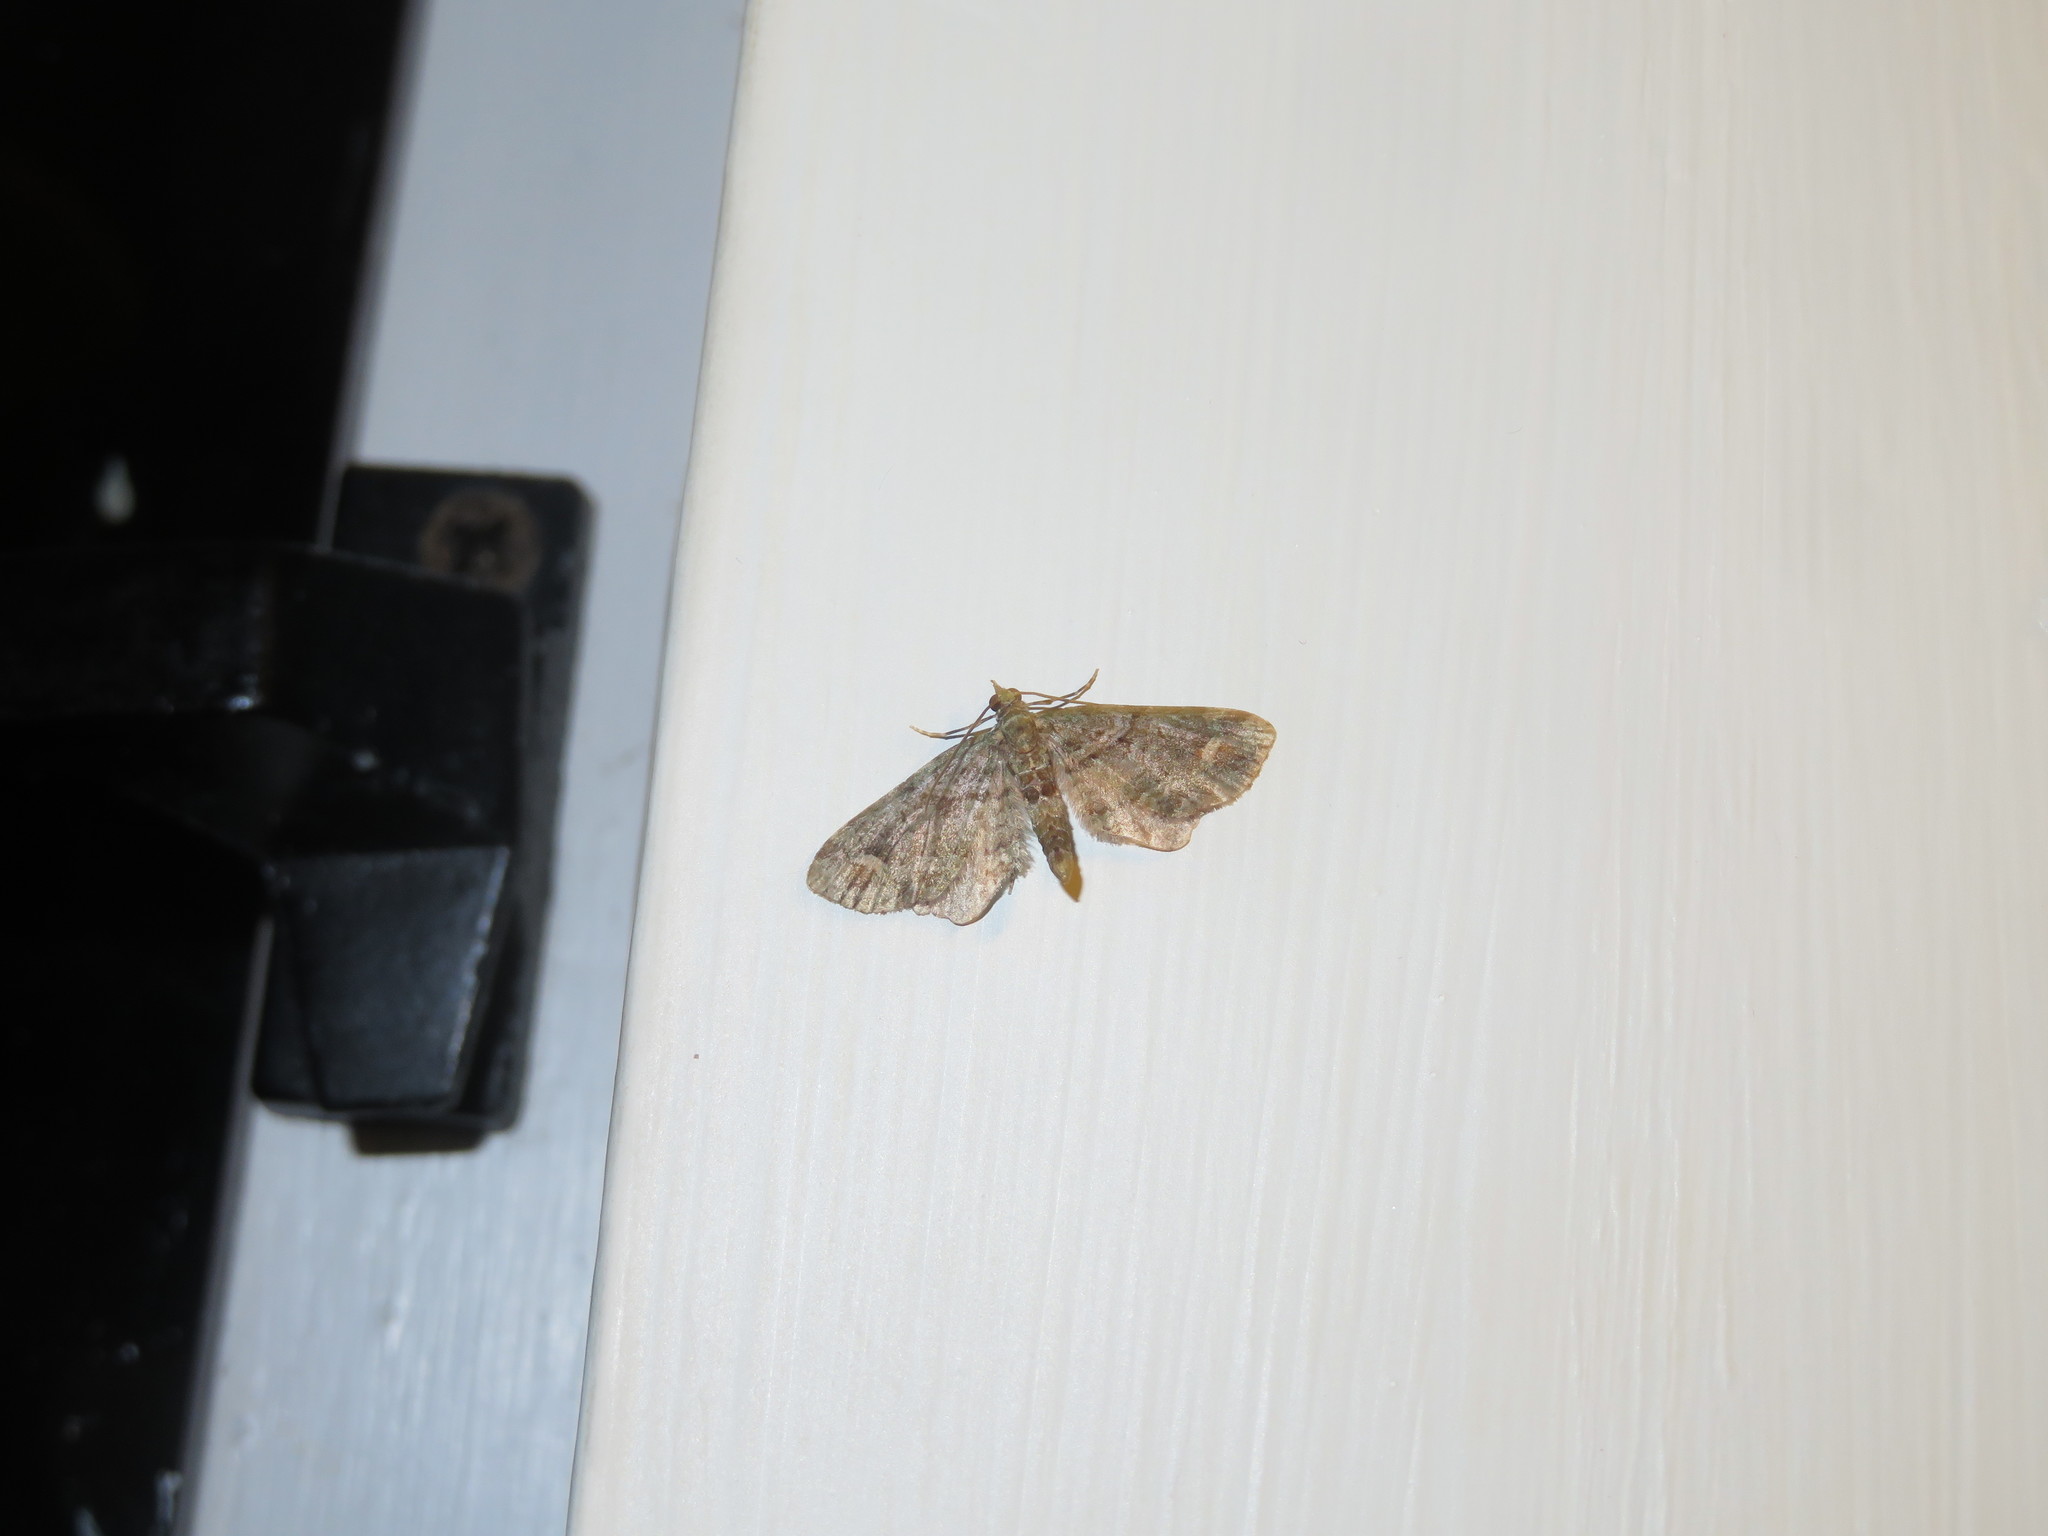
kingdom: Animalia
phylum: Arthropoda
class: Insecta
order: Lepidoptera
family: Geometridae
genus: Idaea
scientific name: Idaea mutanda
